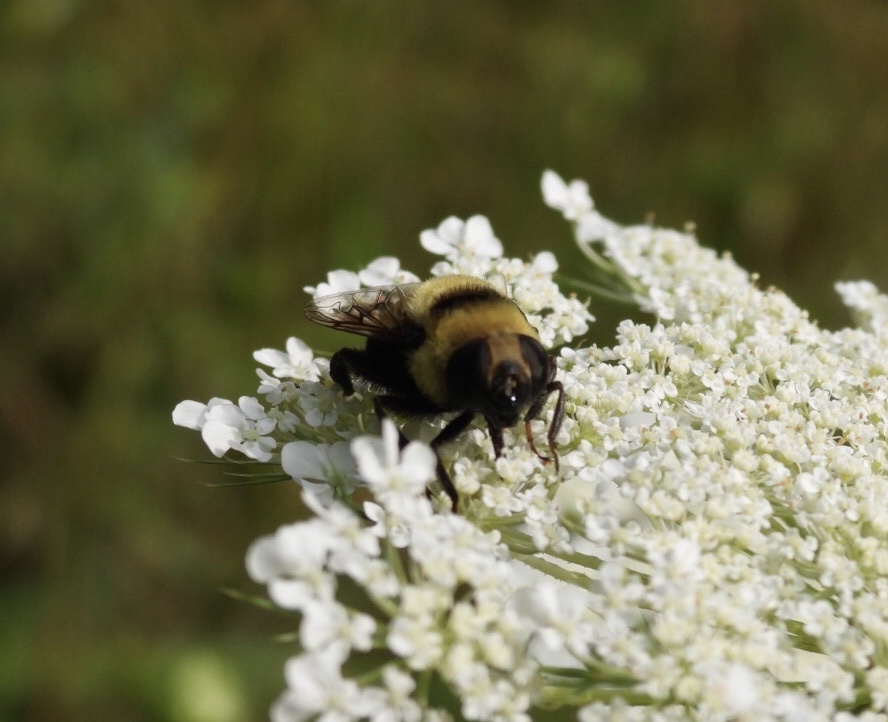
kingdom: Animalia
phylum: Arthropoda
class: Insecta
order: Diptera
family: Syrphidae
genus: Eristalis
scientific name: Eristalis flavipes
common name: Orange-legged drone fly
